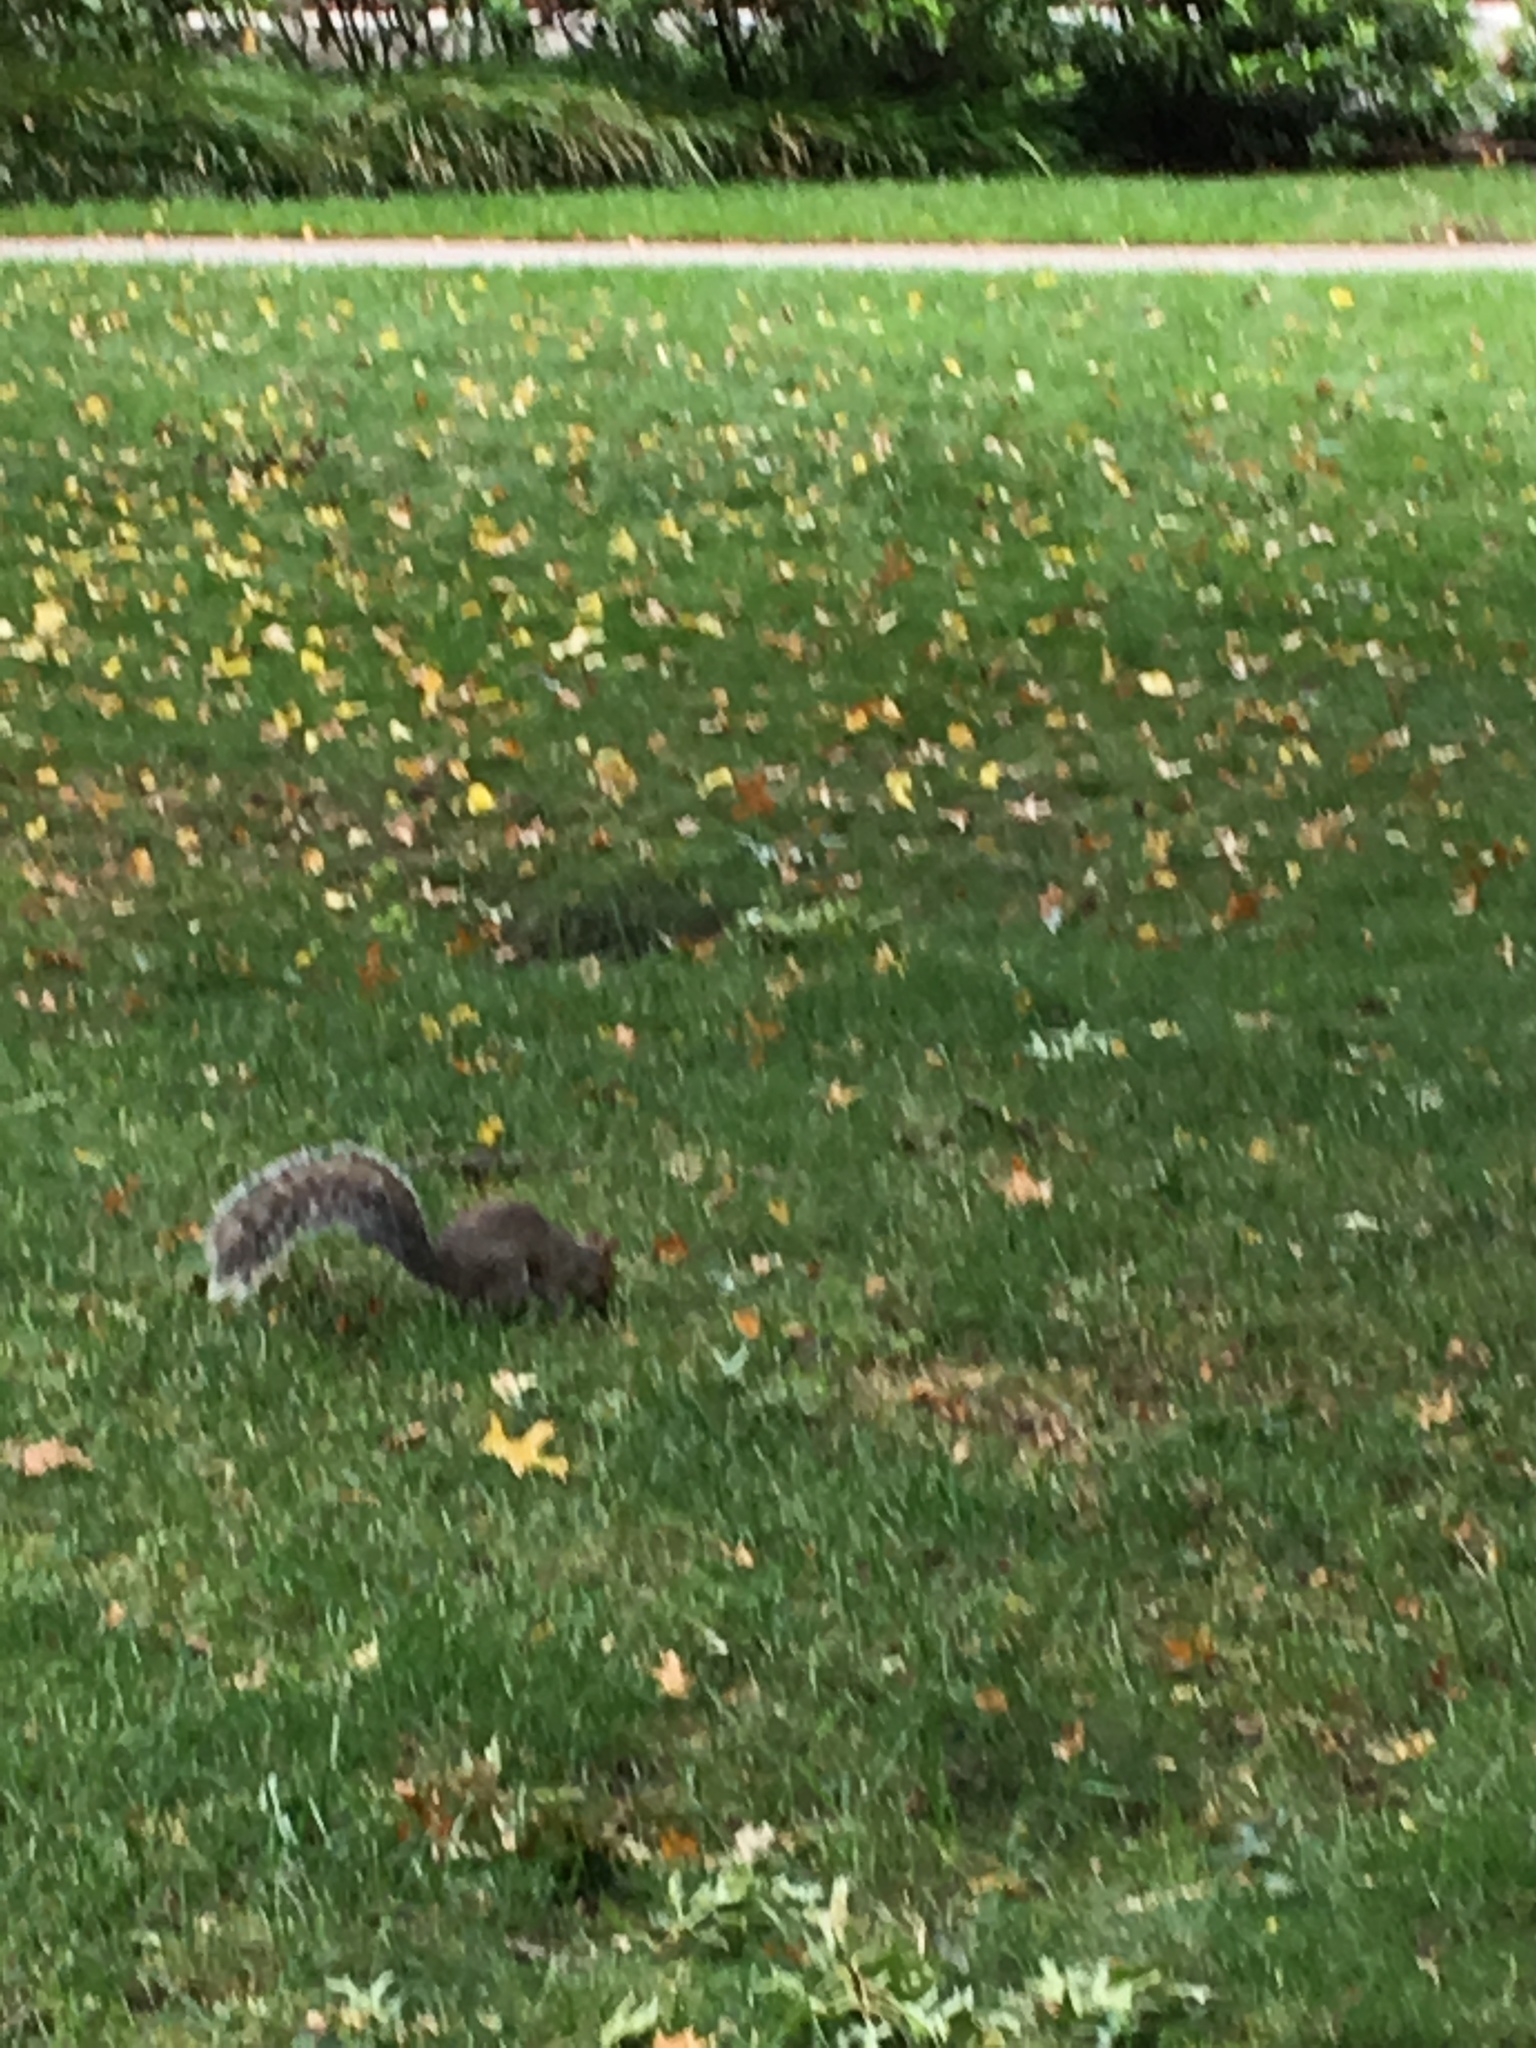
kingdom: Animalia
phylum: Chordata
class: Mammalia
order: Rodentia
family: Sciuridae
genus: Sciurus
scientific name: Sciurus carolinensis
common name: Eastern gray squirrel
